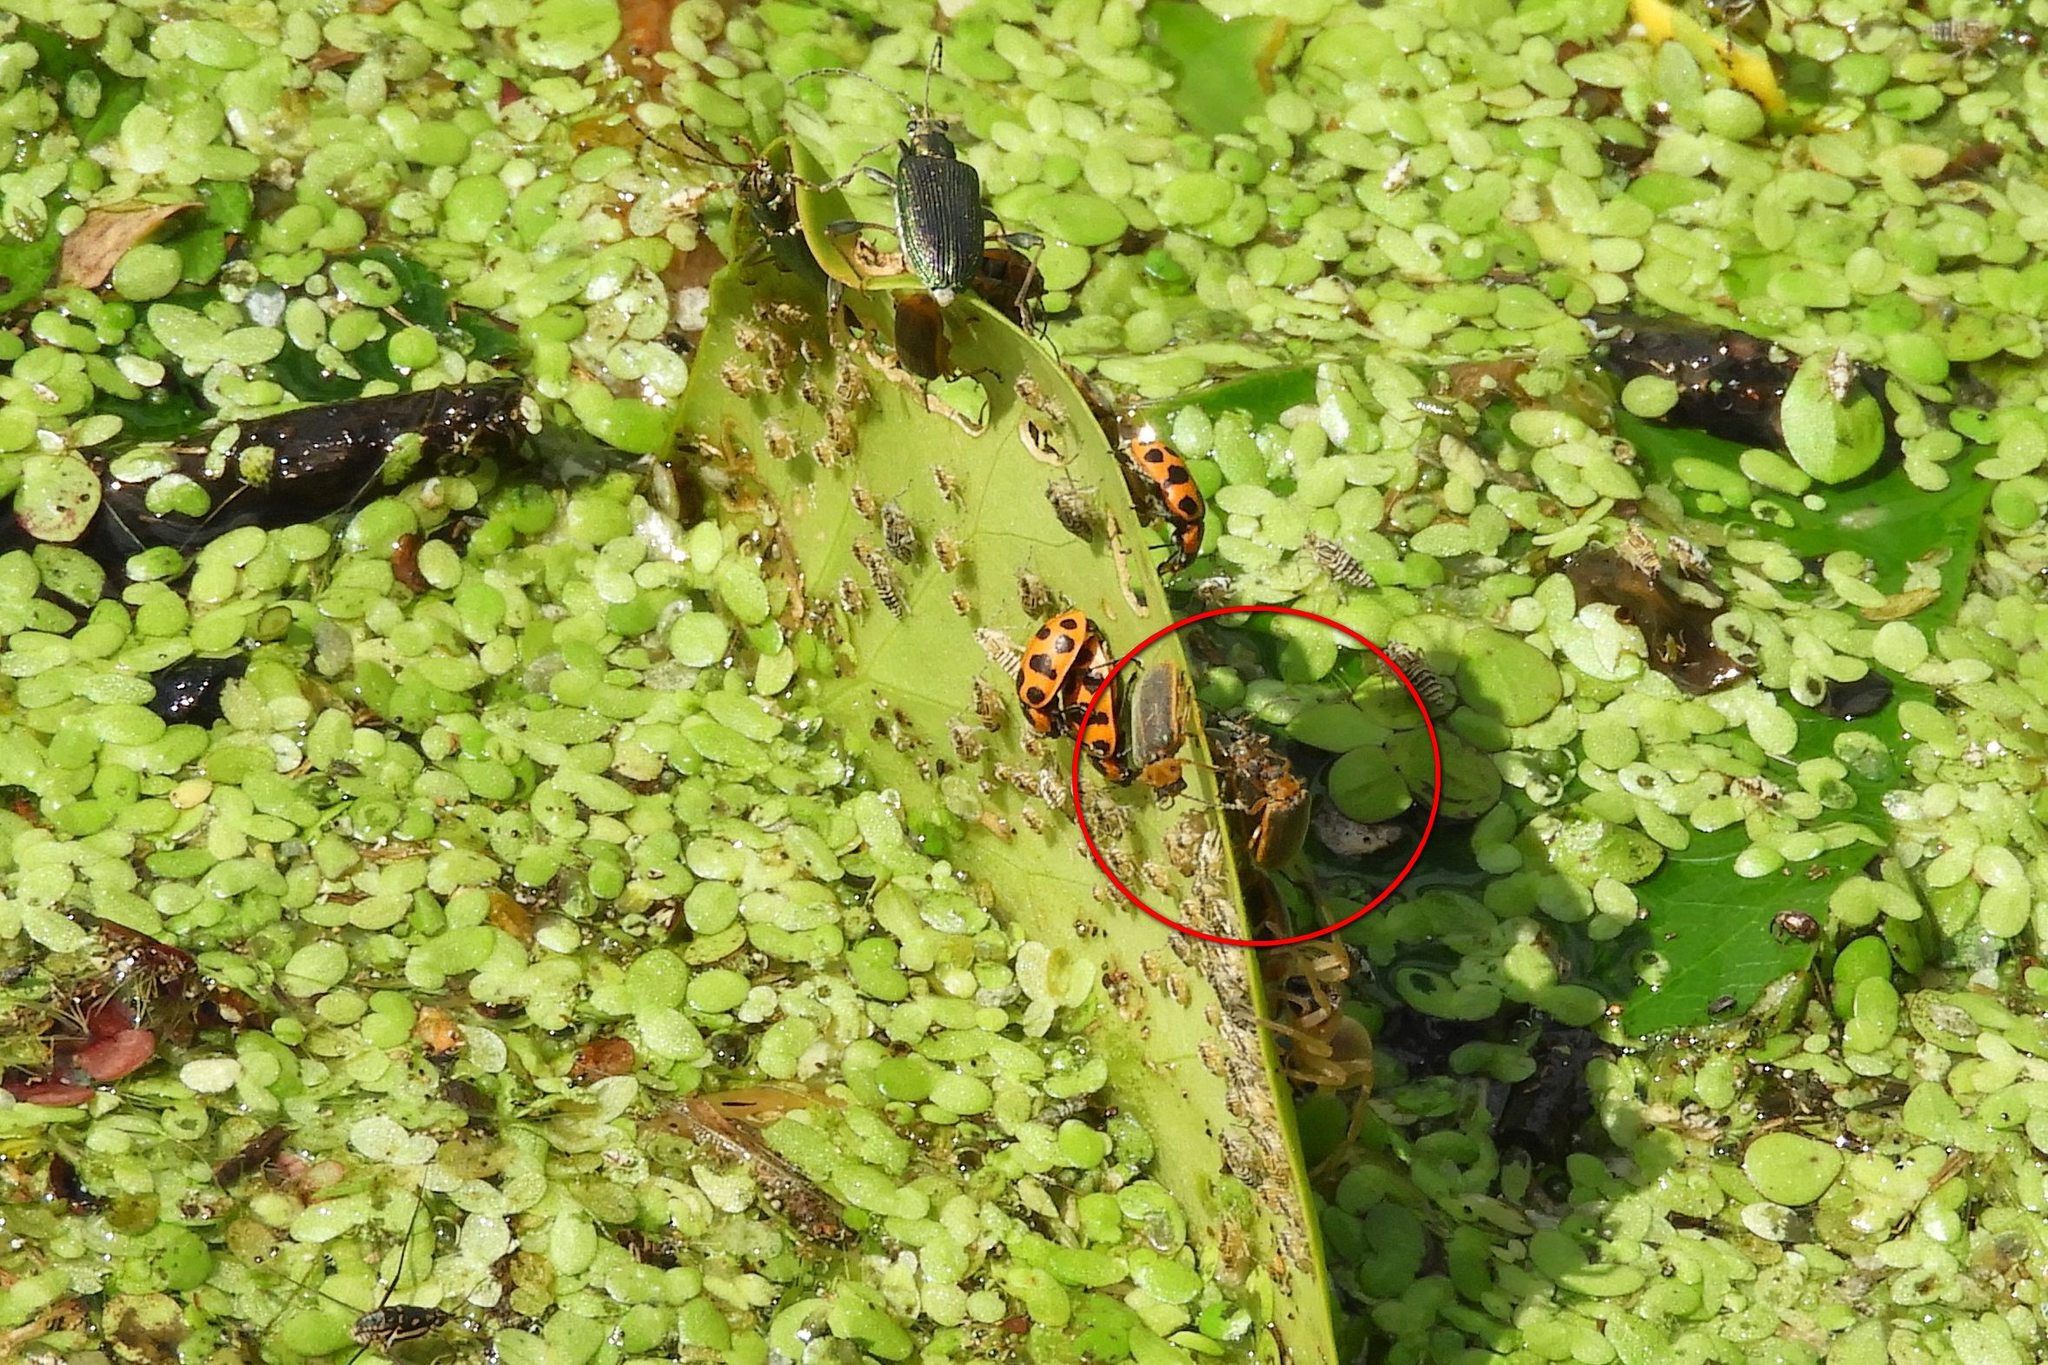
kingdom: Animalia
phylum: Arthropoda
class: Insecta
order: Coleoptera
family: Chrysomelidae
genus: Galerucella
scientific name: Galerucella nymphaeae
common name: Leaf beetle
